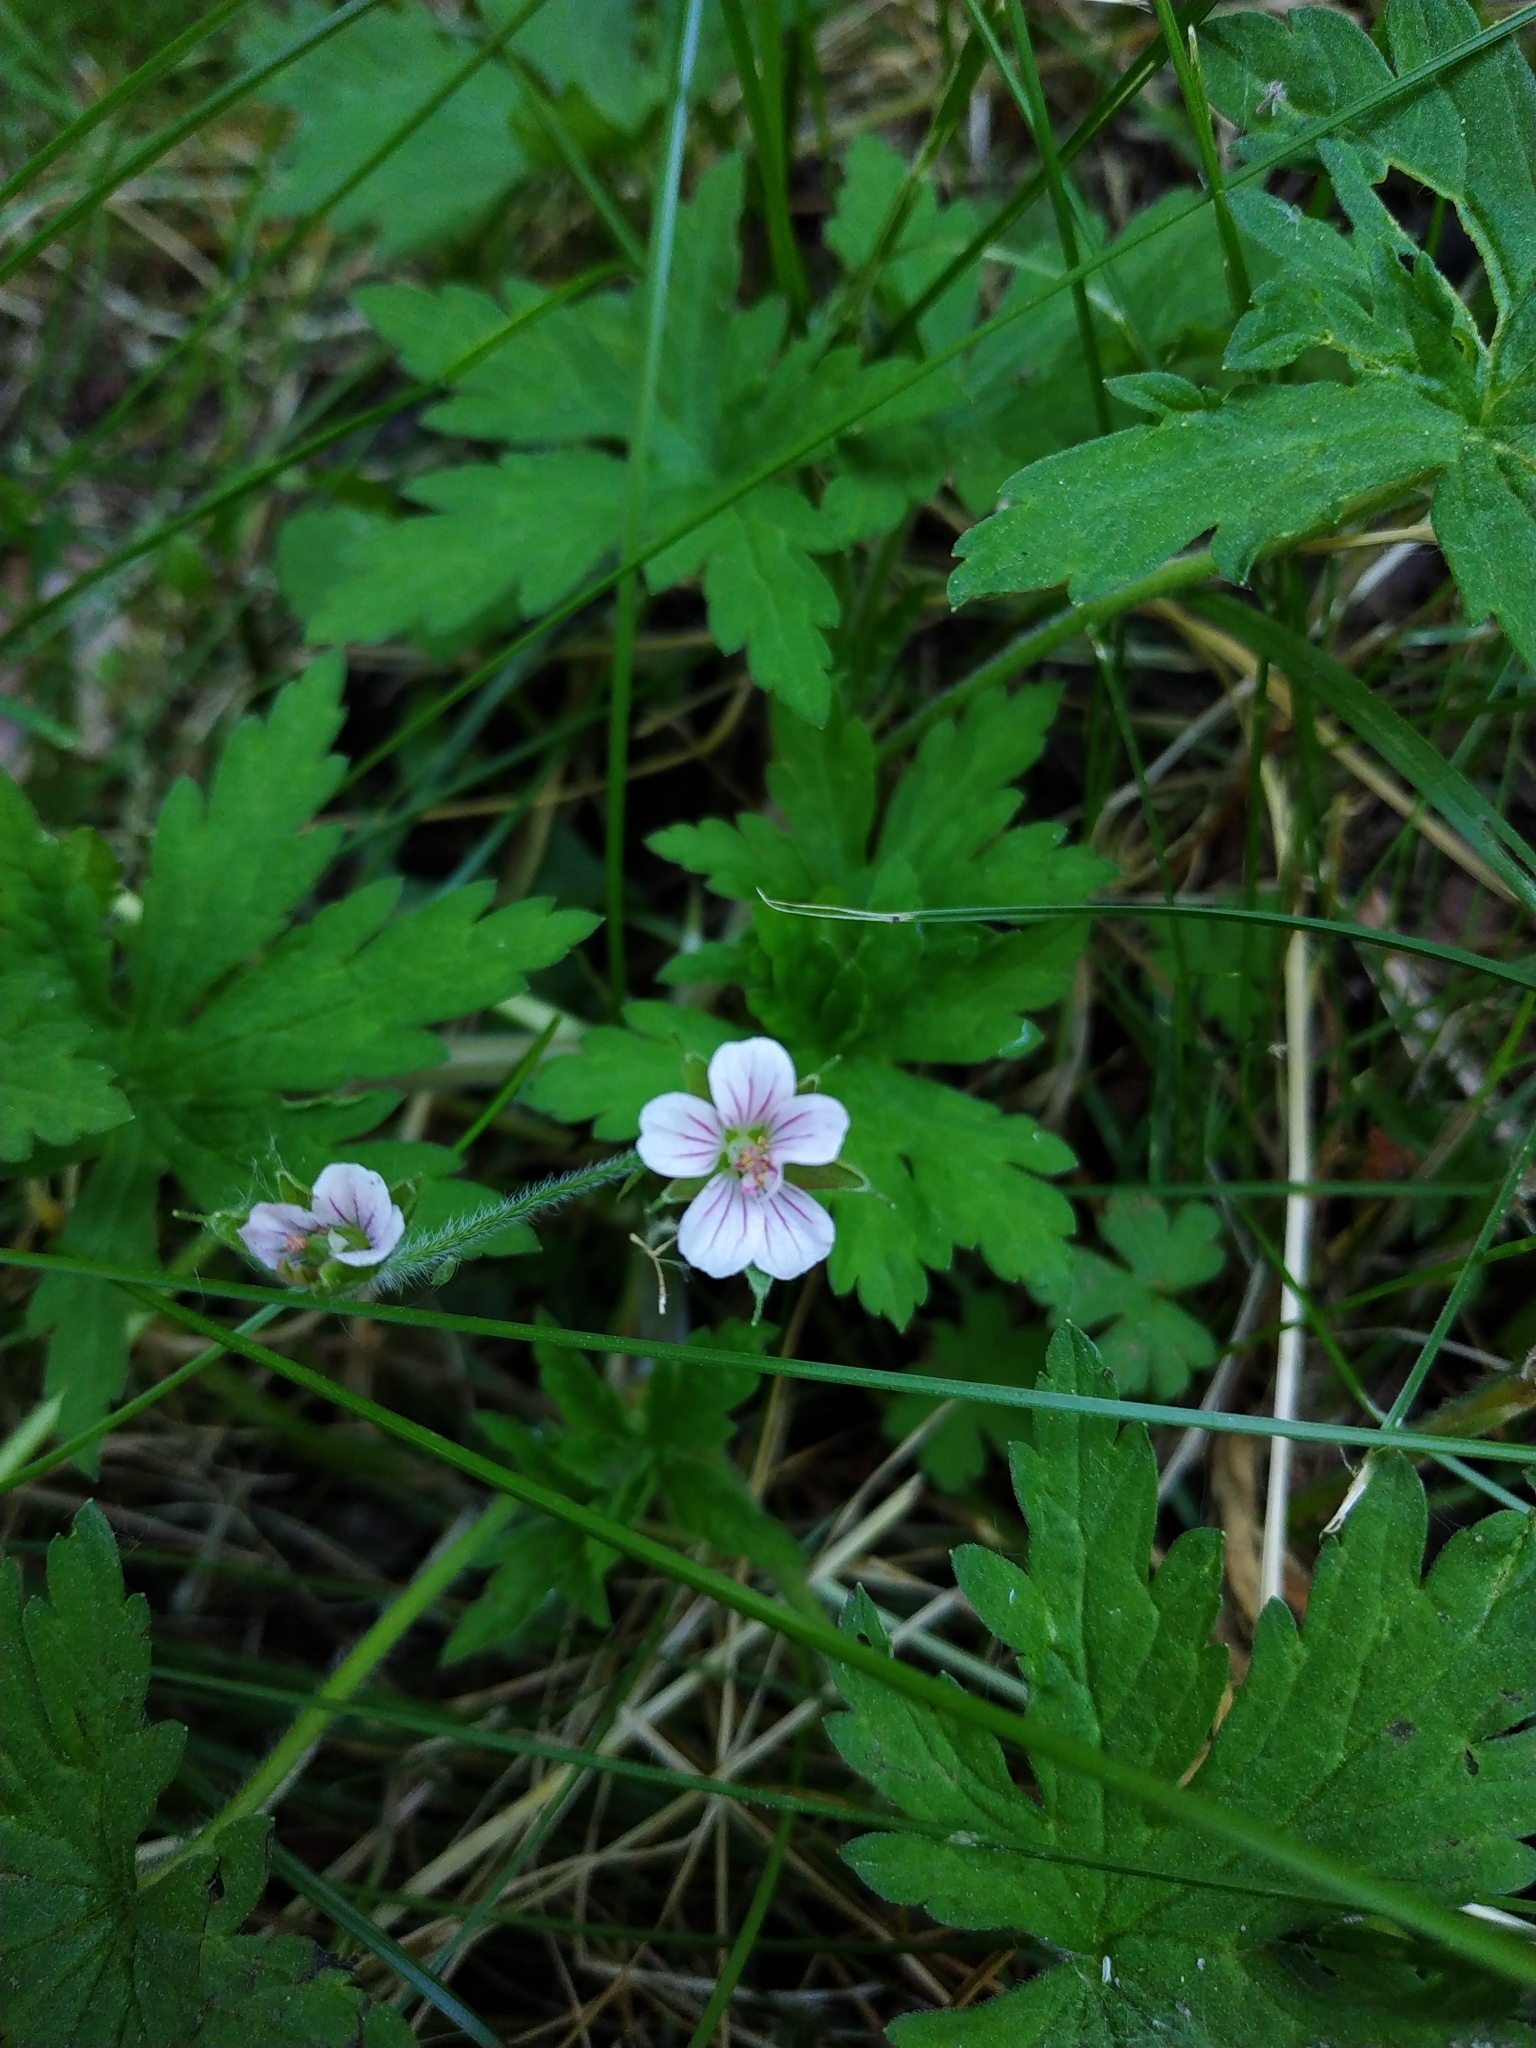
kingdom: Plantae
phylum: Tracheophyta
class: Magnoliopsida
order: Geraniales
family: Geraniaceae
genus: Geranium
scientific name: Geranium sibiricum
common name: Siberian crane's-bill
